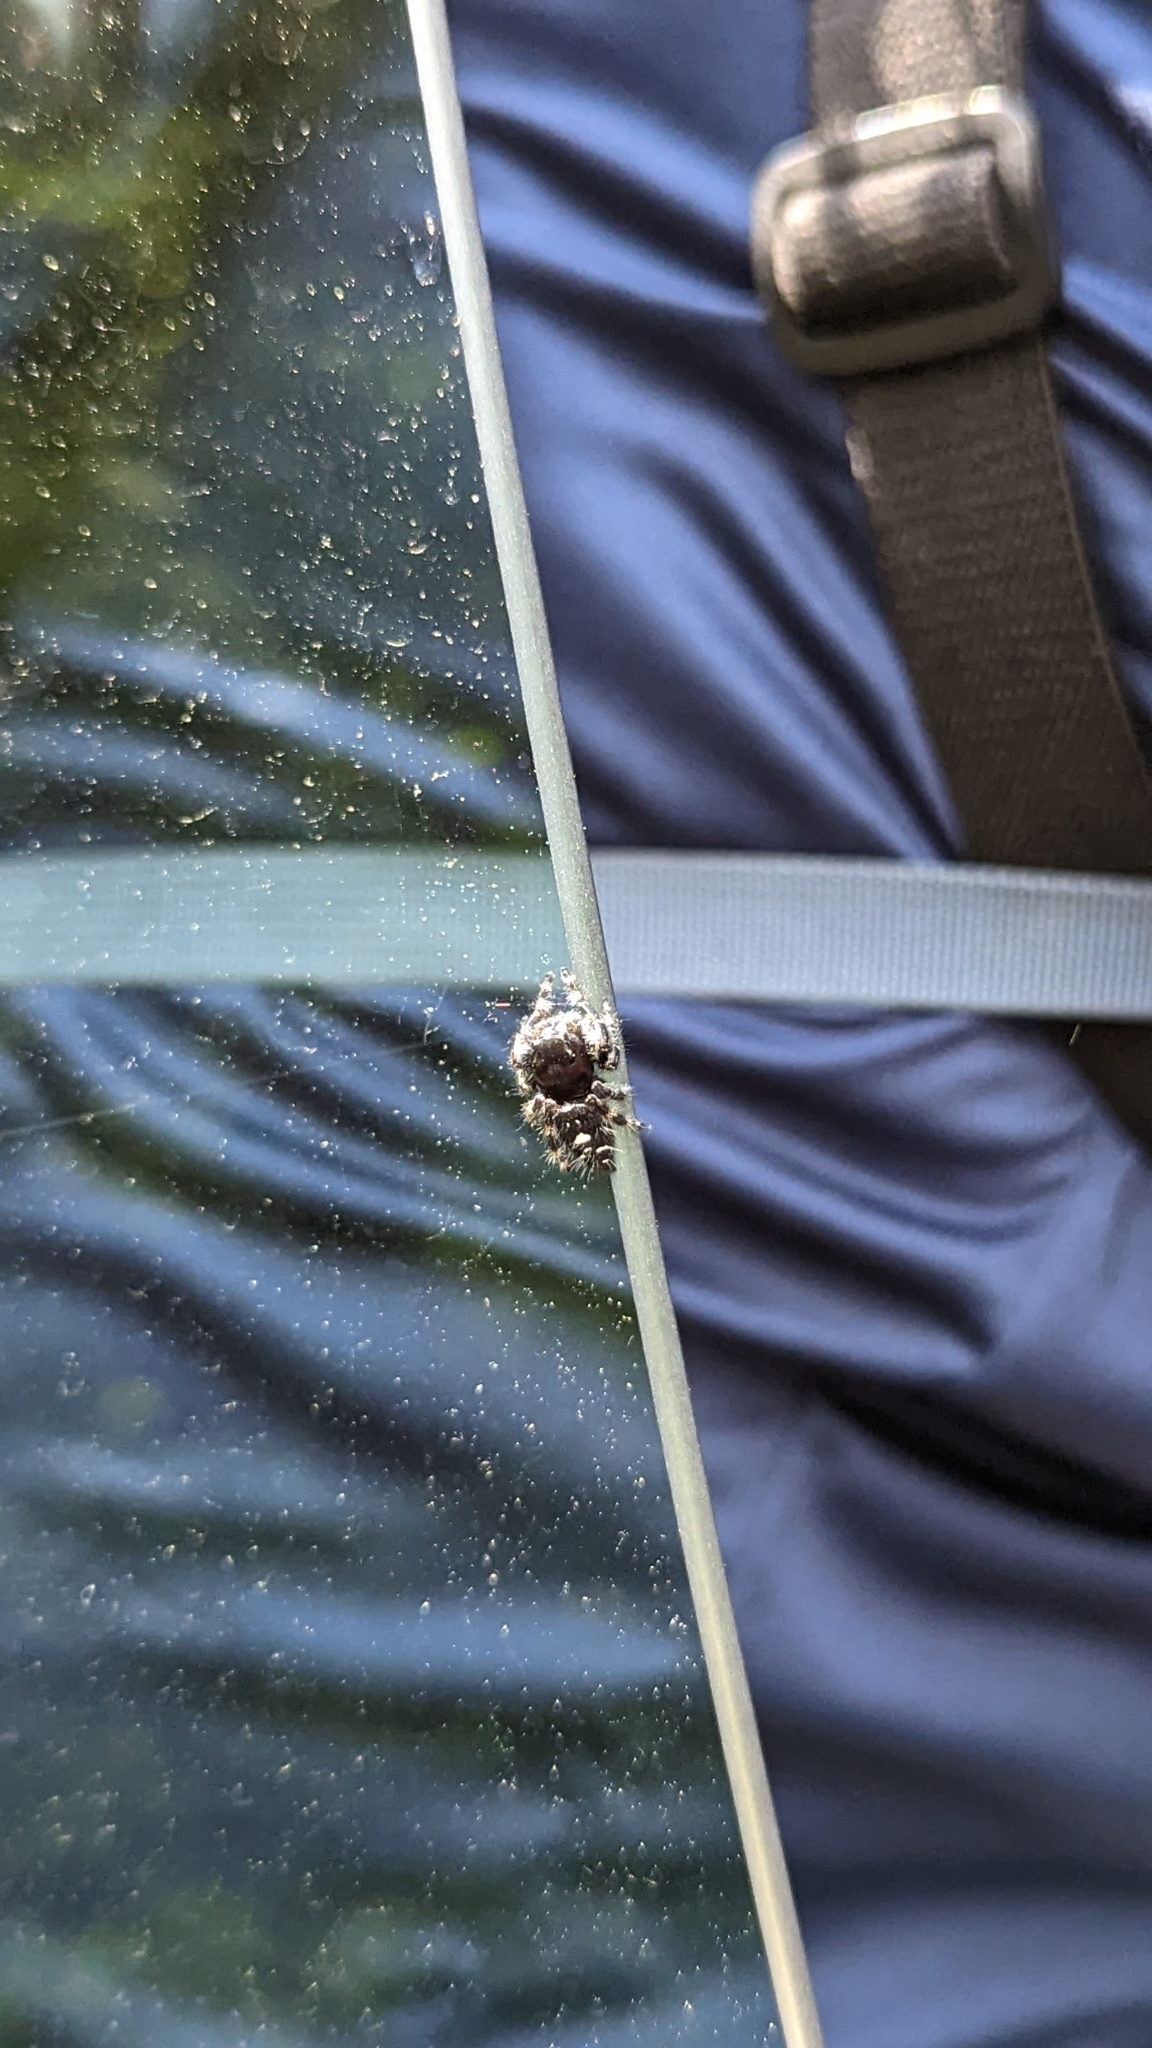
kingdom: Animalia
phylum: Arthropoda
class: Arachnida
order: Araneae
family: Salticidae
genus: Phidippus
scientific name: Phidippus audax
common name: Bold jumper
